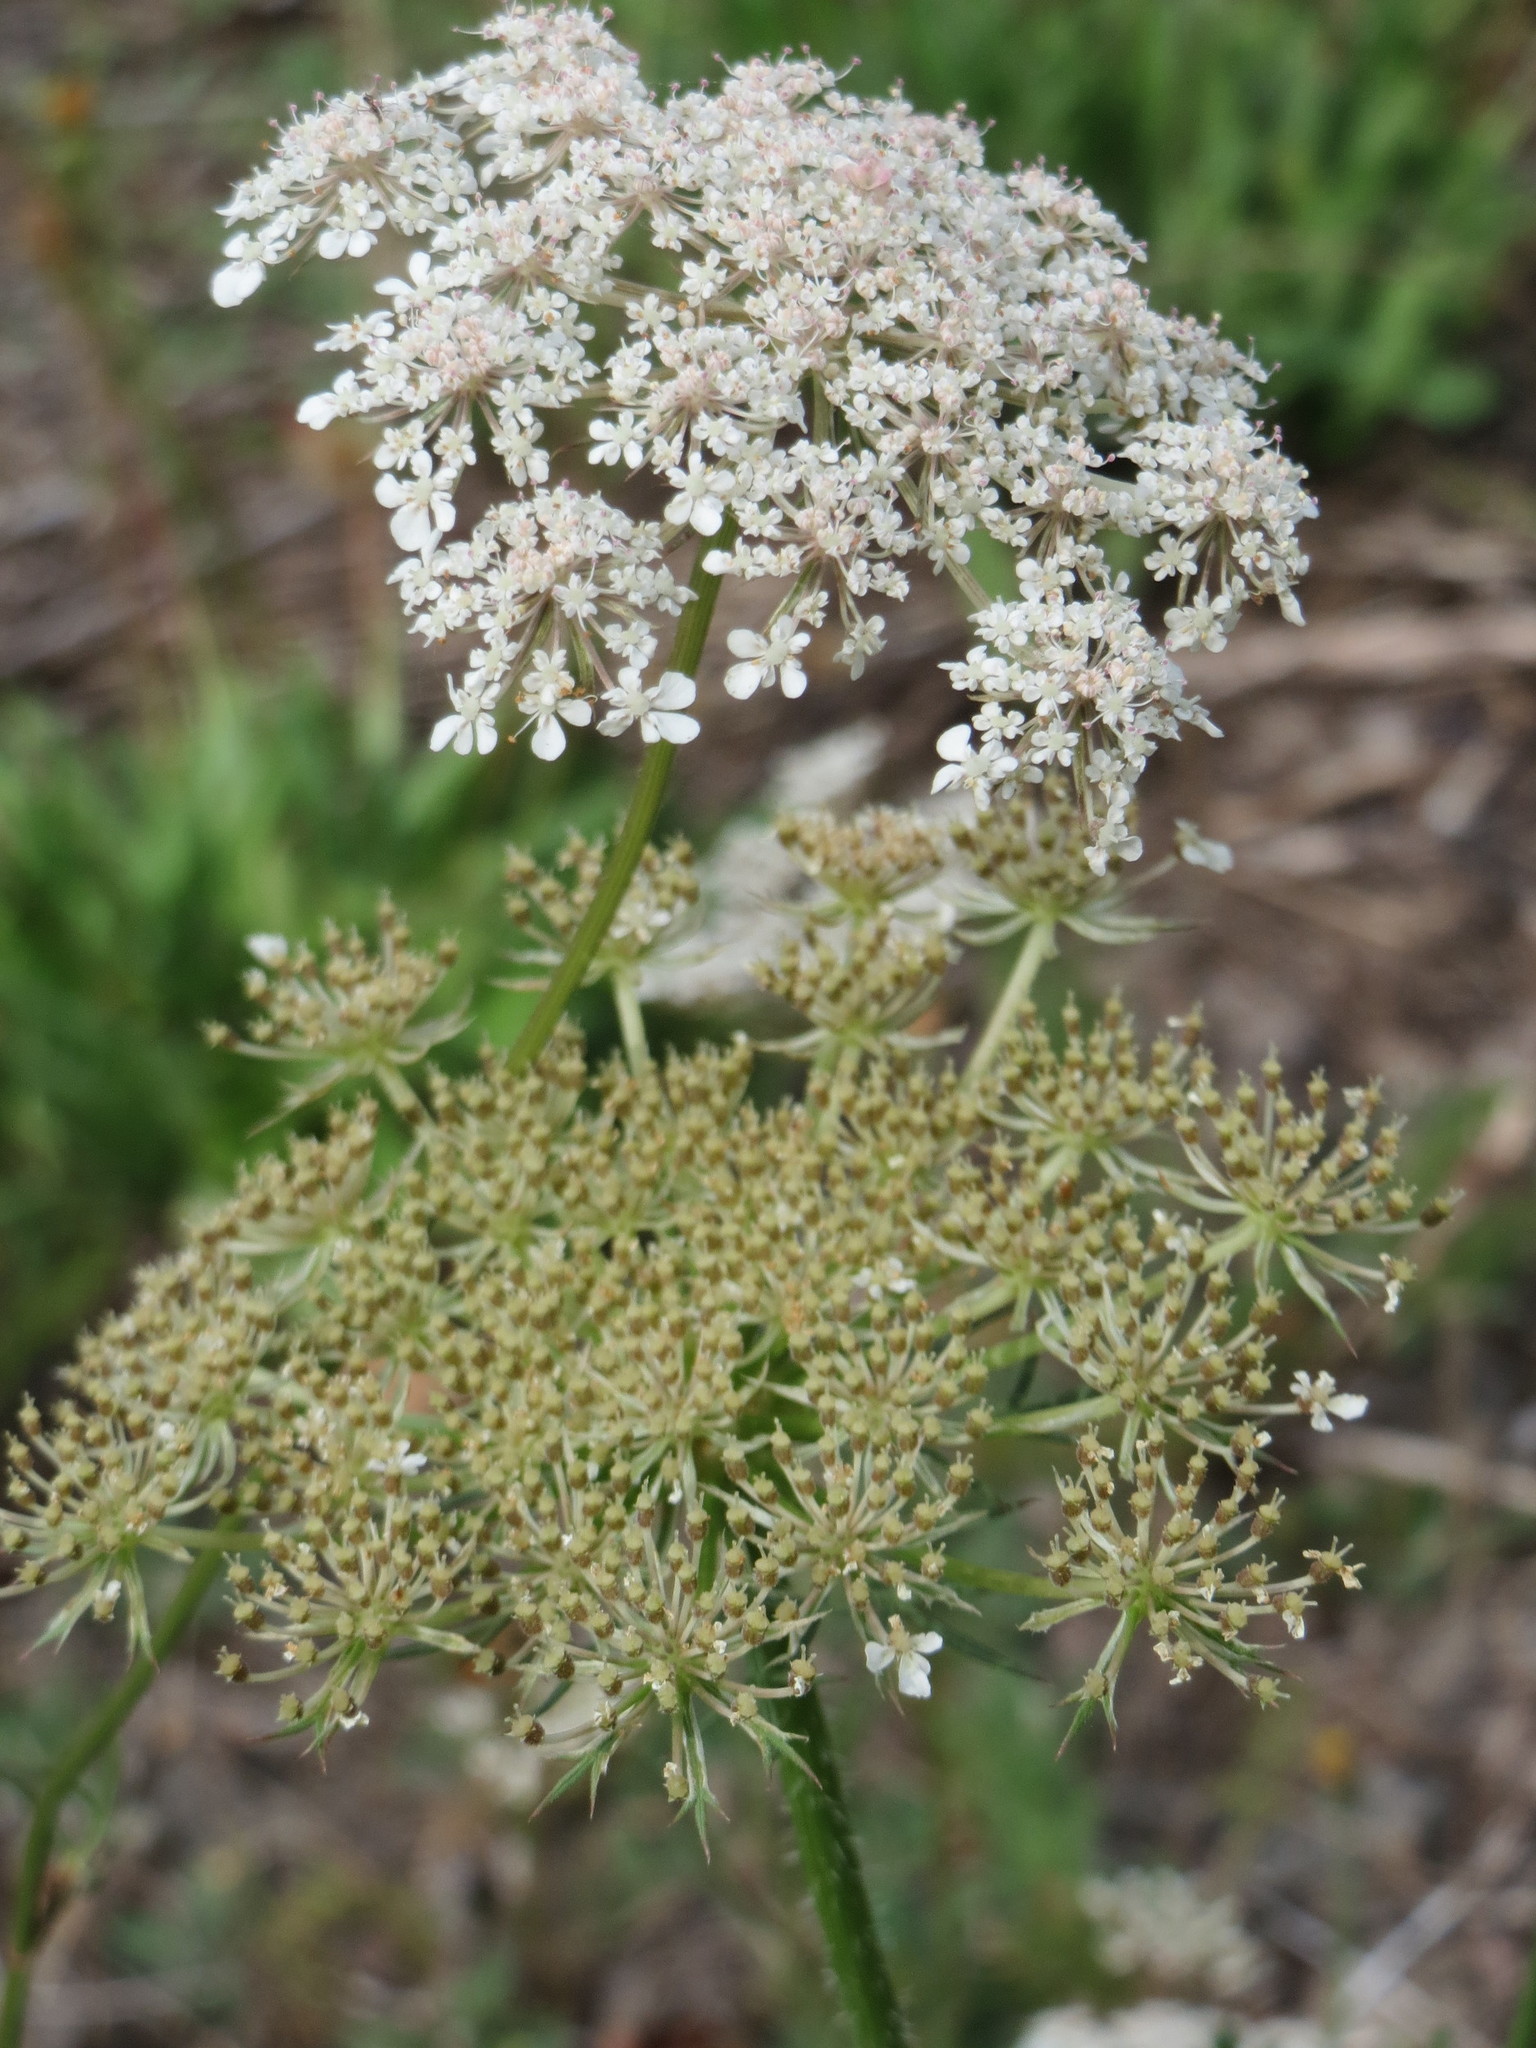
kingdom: Plantae
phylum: Tracheophyta
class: Magnoliopsida
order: Apiales
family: Apiaceae
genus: Daucus
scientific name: Daucus carota
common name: Wild carrot
